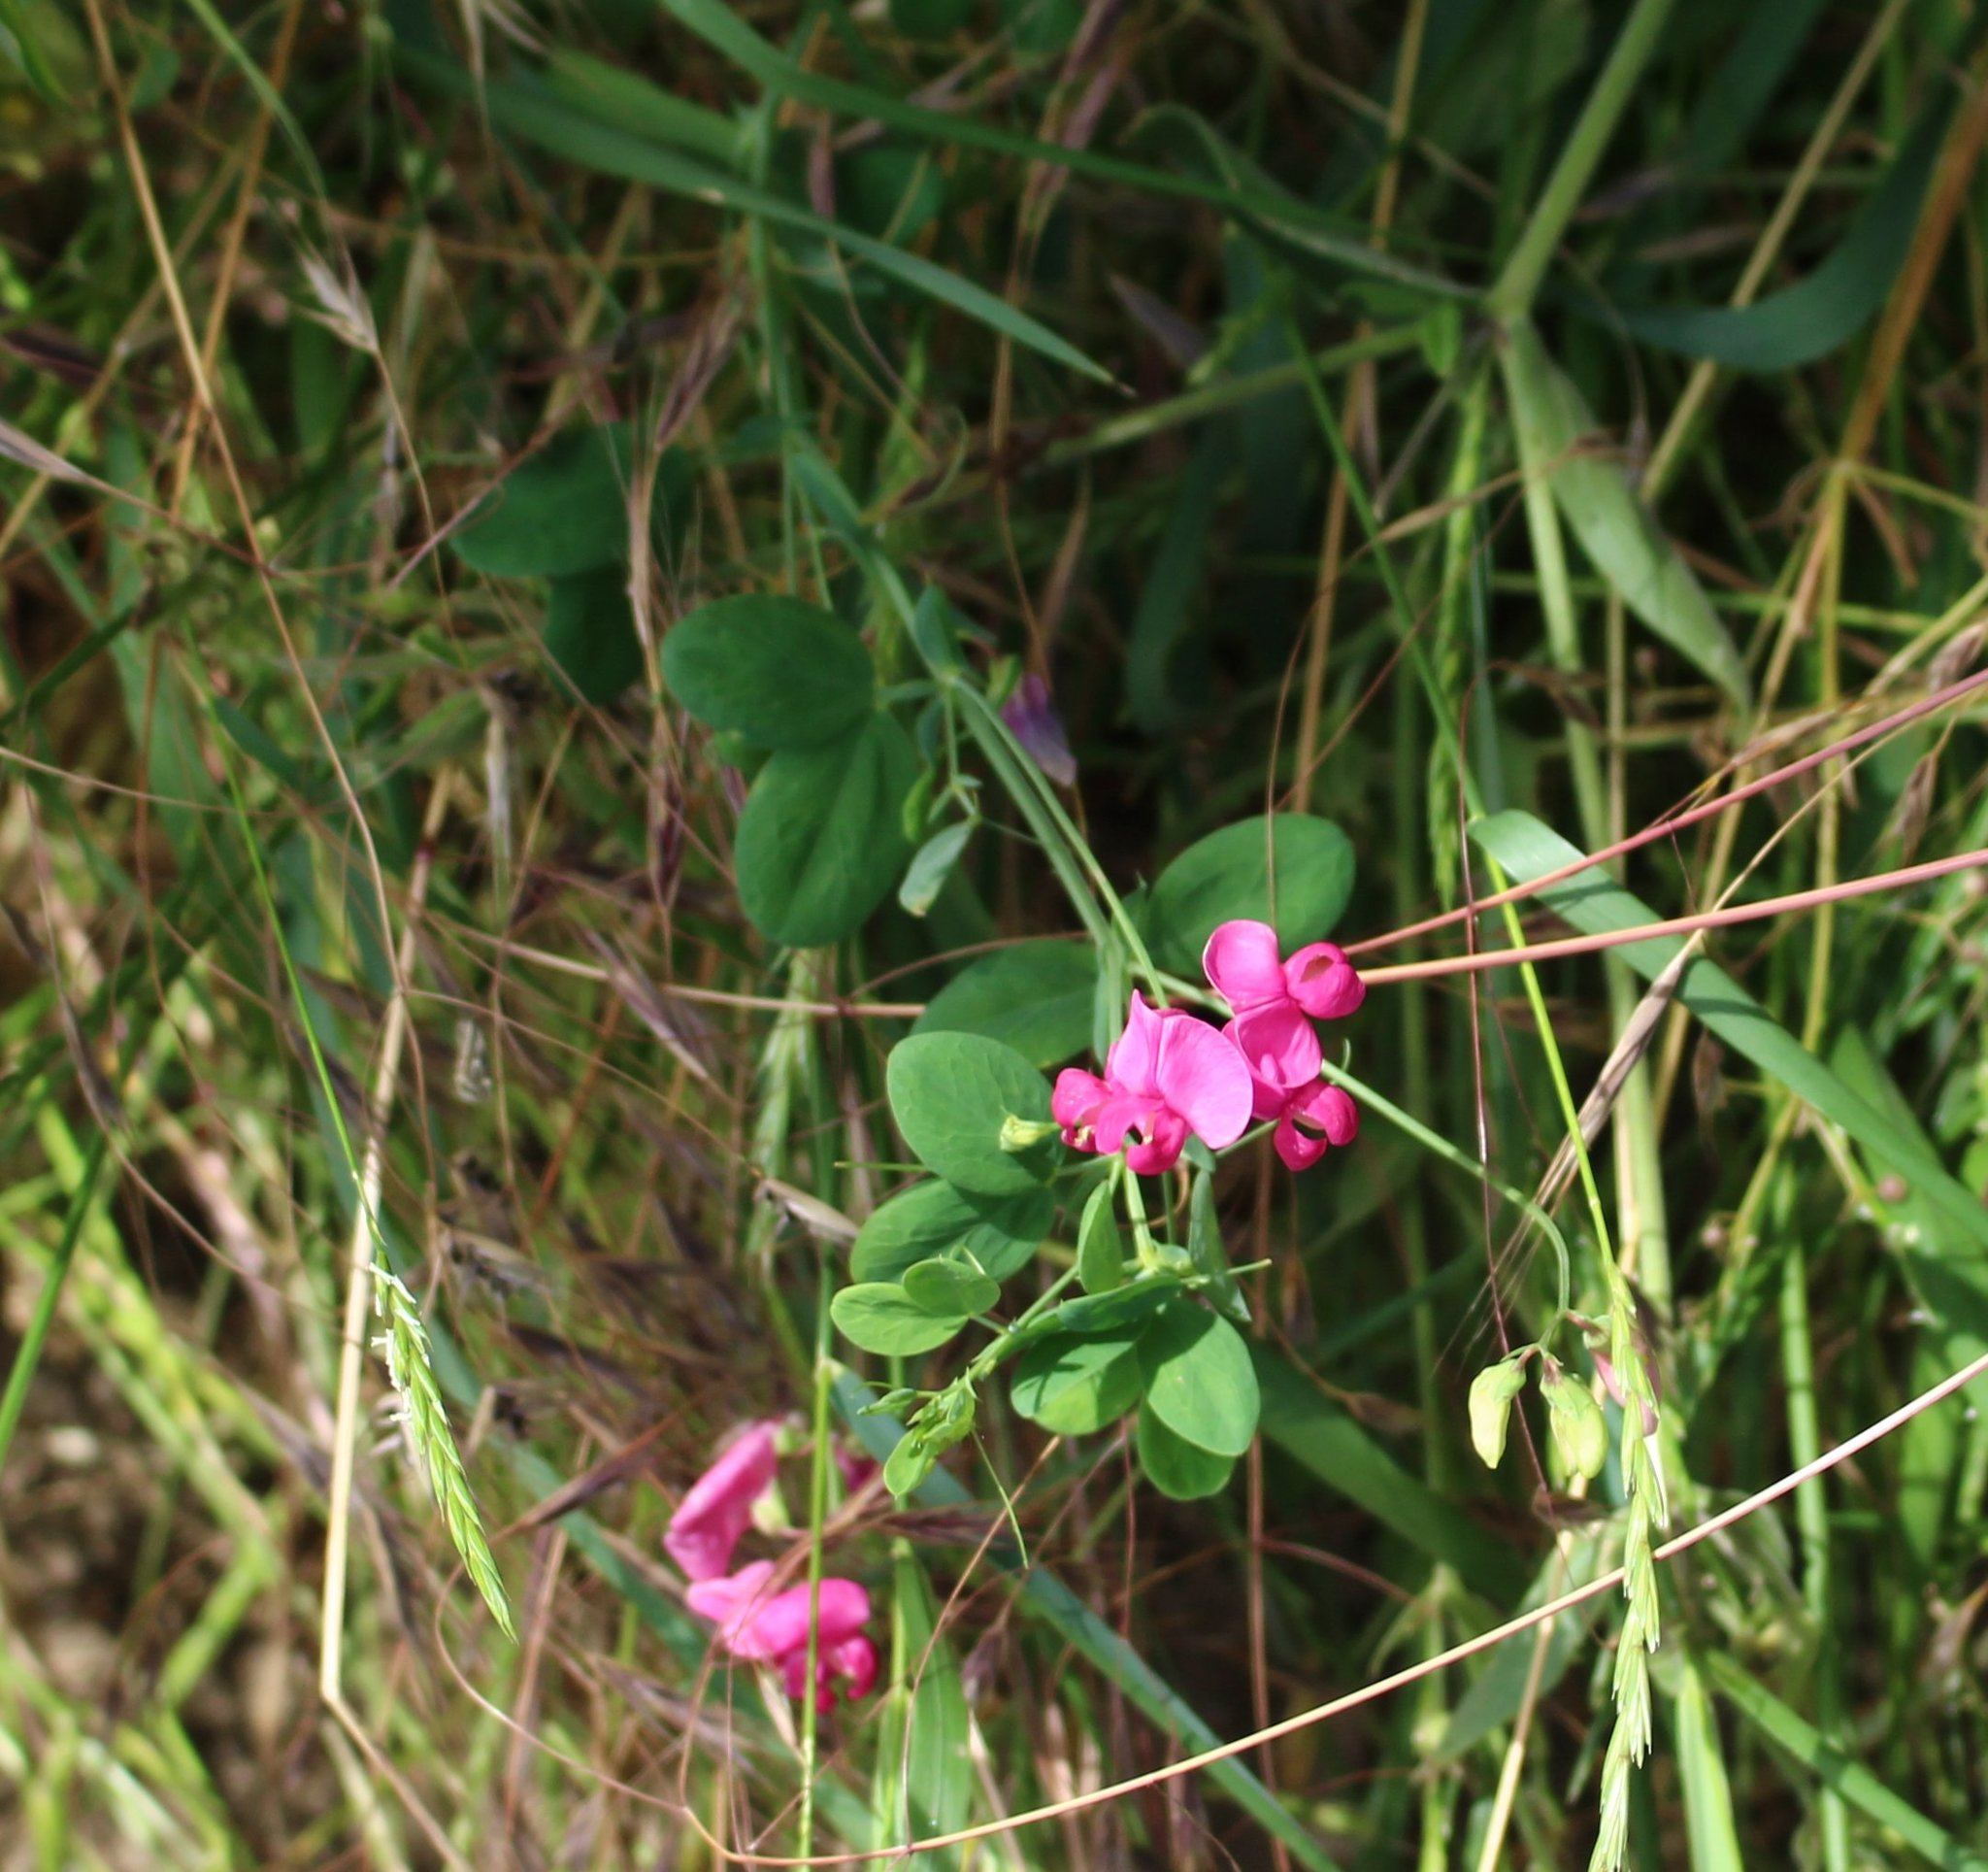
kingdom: Plantae
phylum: Tracheophyta
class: Magnoliopsida
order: Fabales
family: Fabaceae
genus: Lathyrus
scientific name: Lathyrus tuberosus
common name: Tuberous pea
